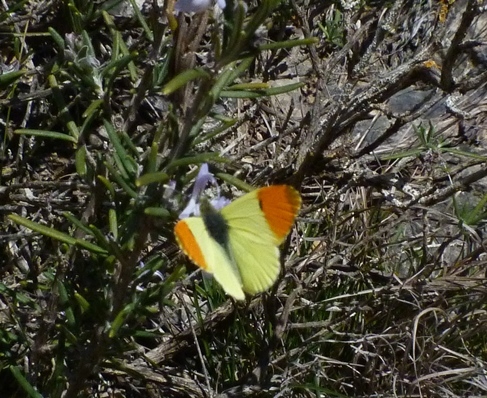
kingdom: Animalia
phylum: Arthropoda
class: Insecta
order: Lepidoptera
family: Pieridae
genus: Anthocharis
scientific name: Anthocharis euphenoides
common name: Provence orange-tip
